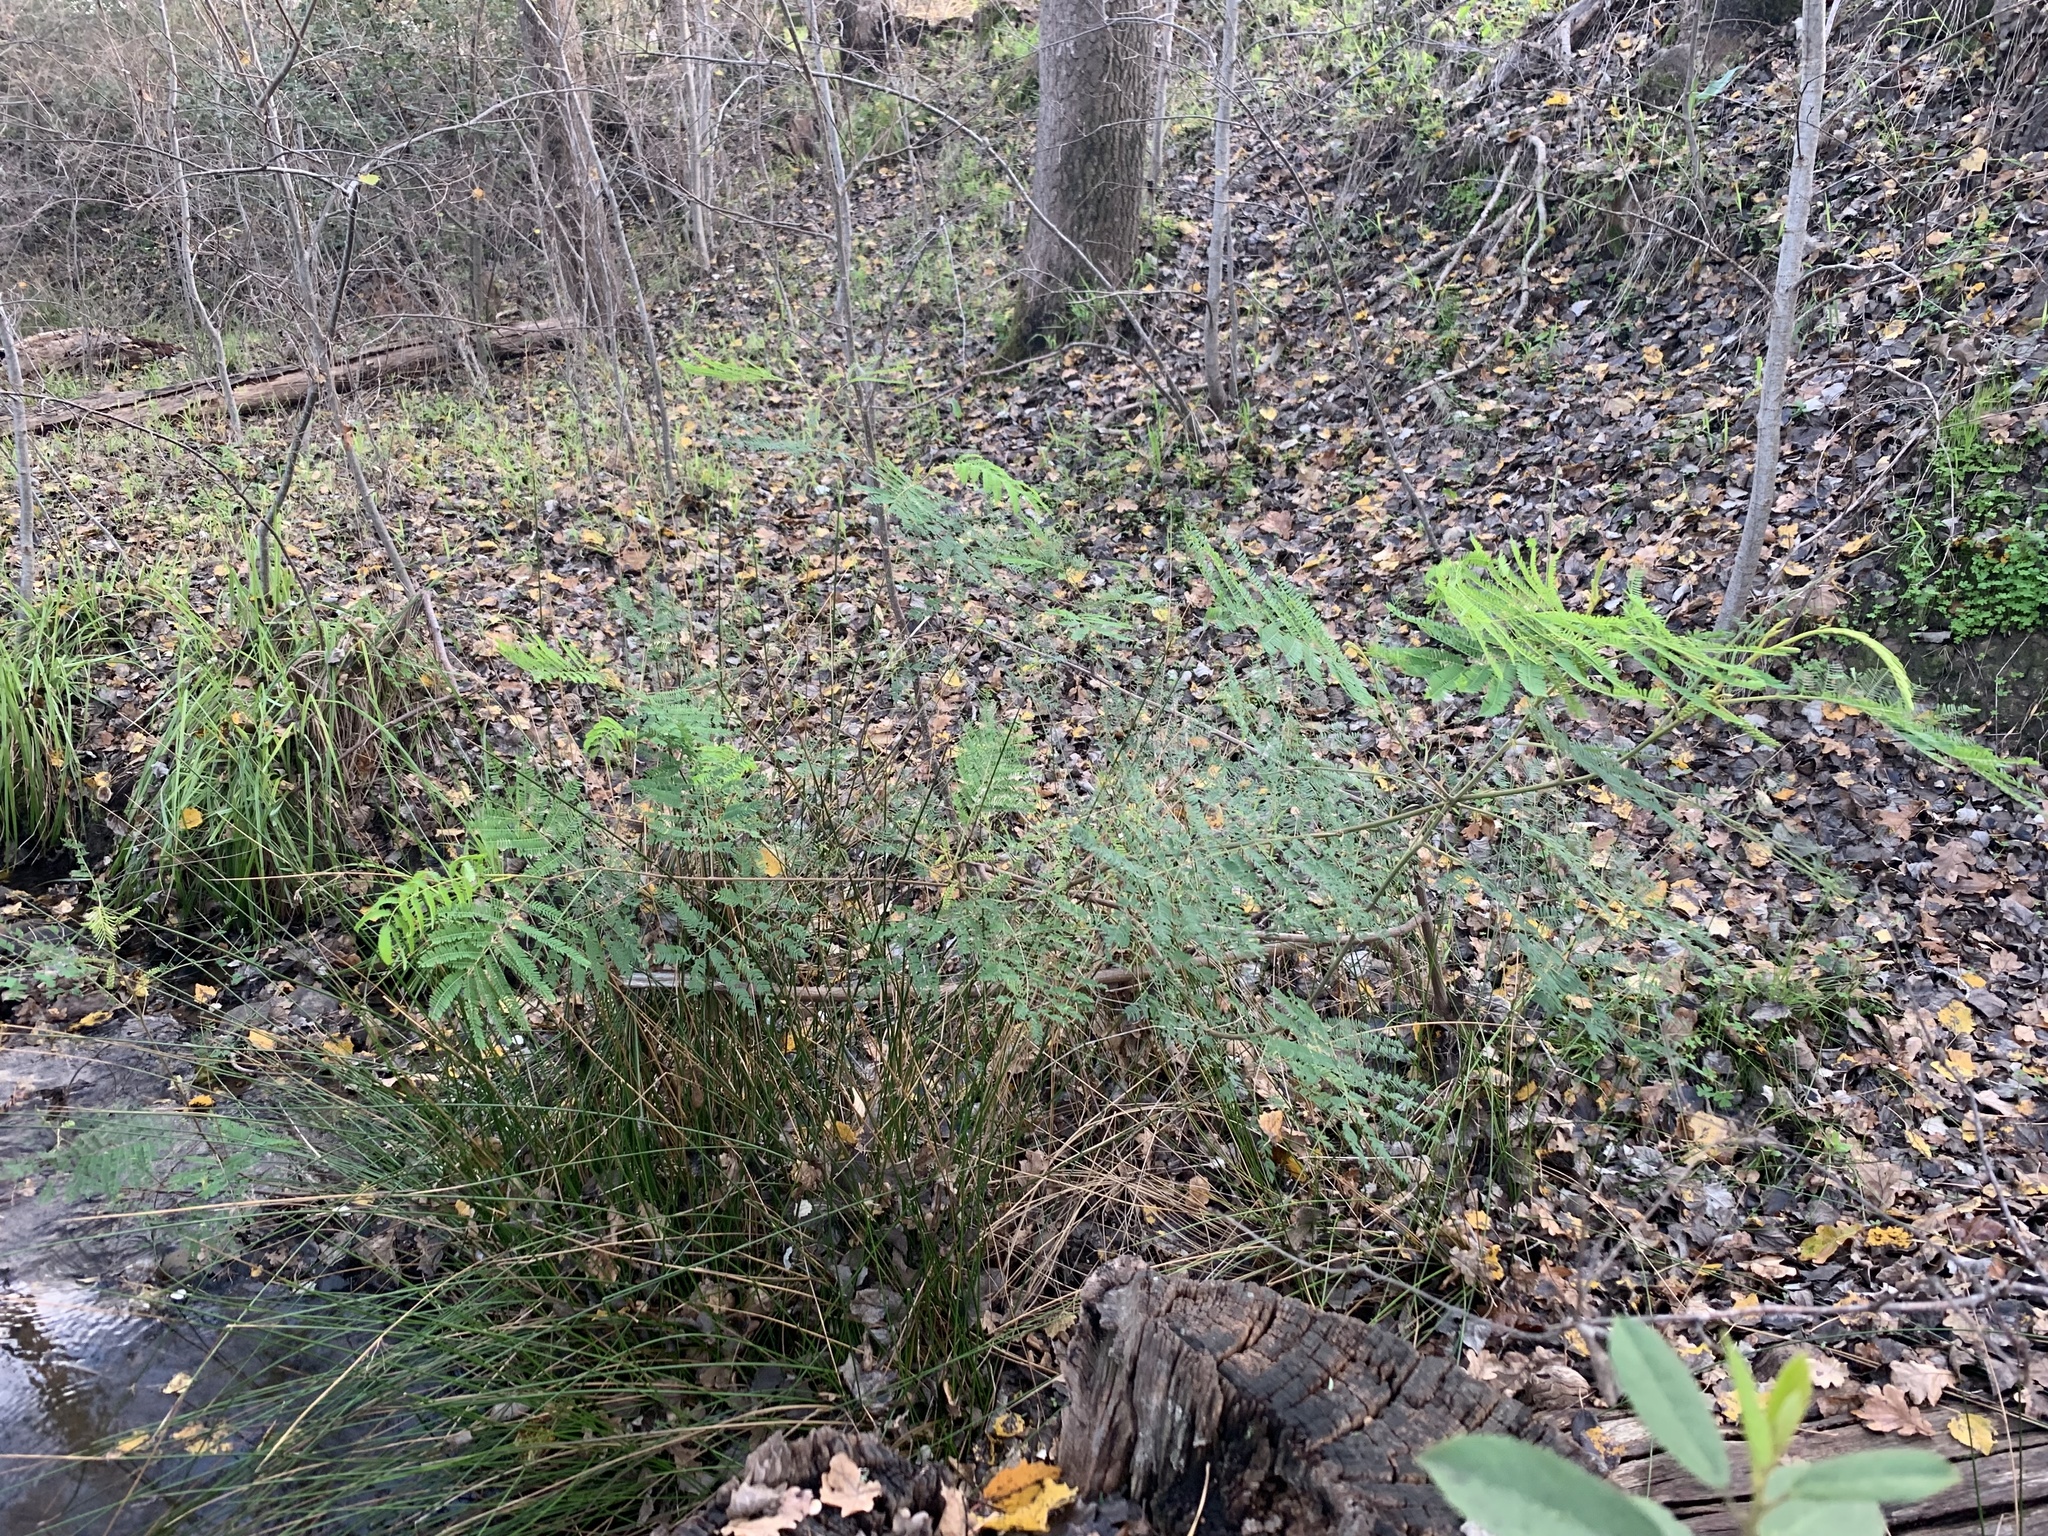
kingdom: Plantae
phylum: Tracheophyta
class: Magnoliopsida
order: Fabales
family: Fabaceae
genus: Paraserianthes
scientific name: Paraserianthes lophantha
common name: Plume albizia
